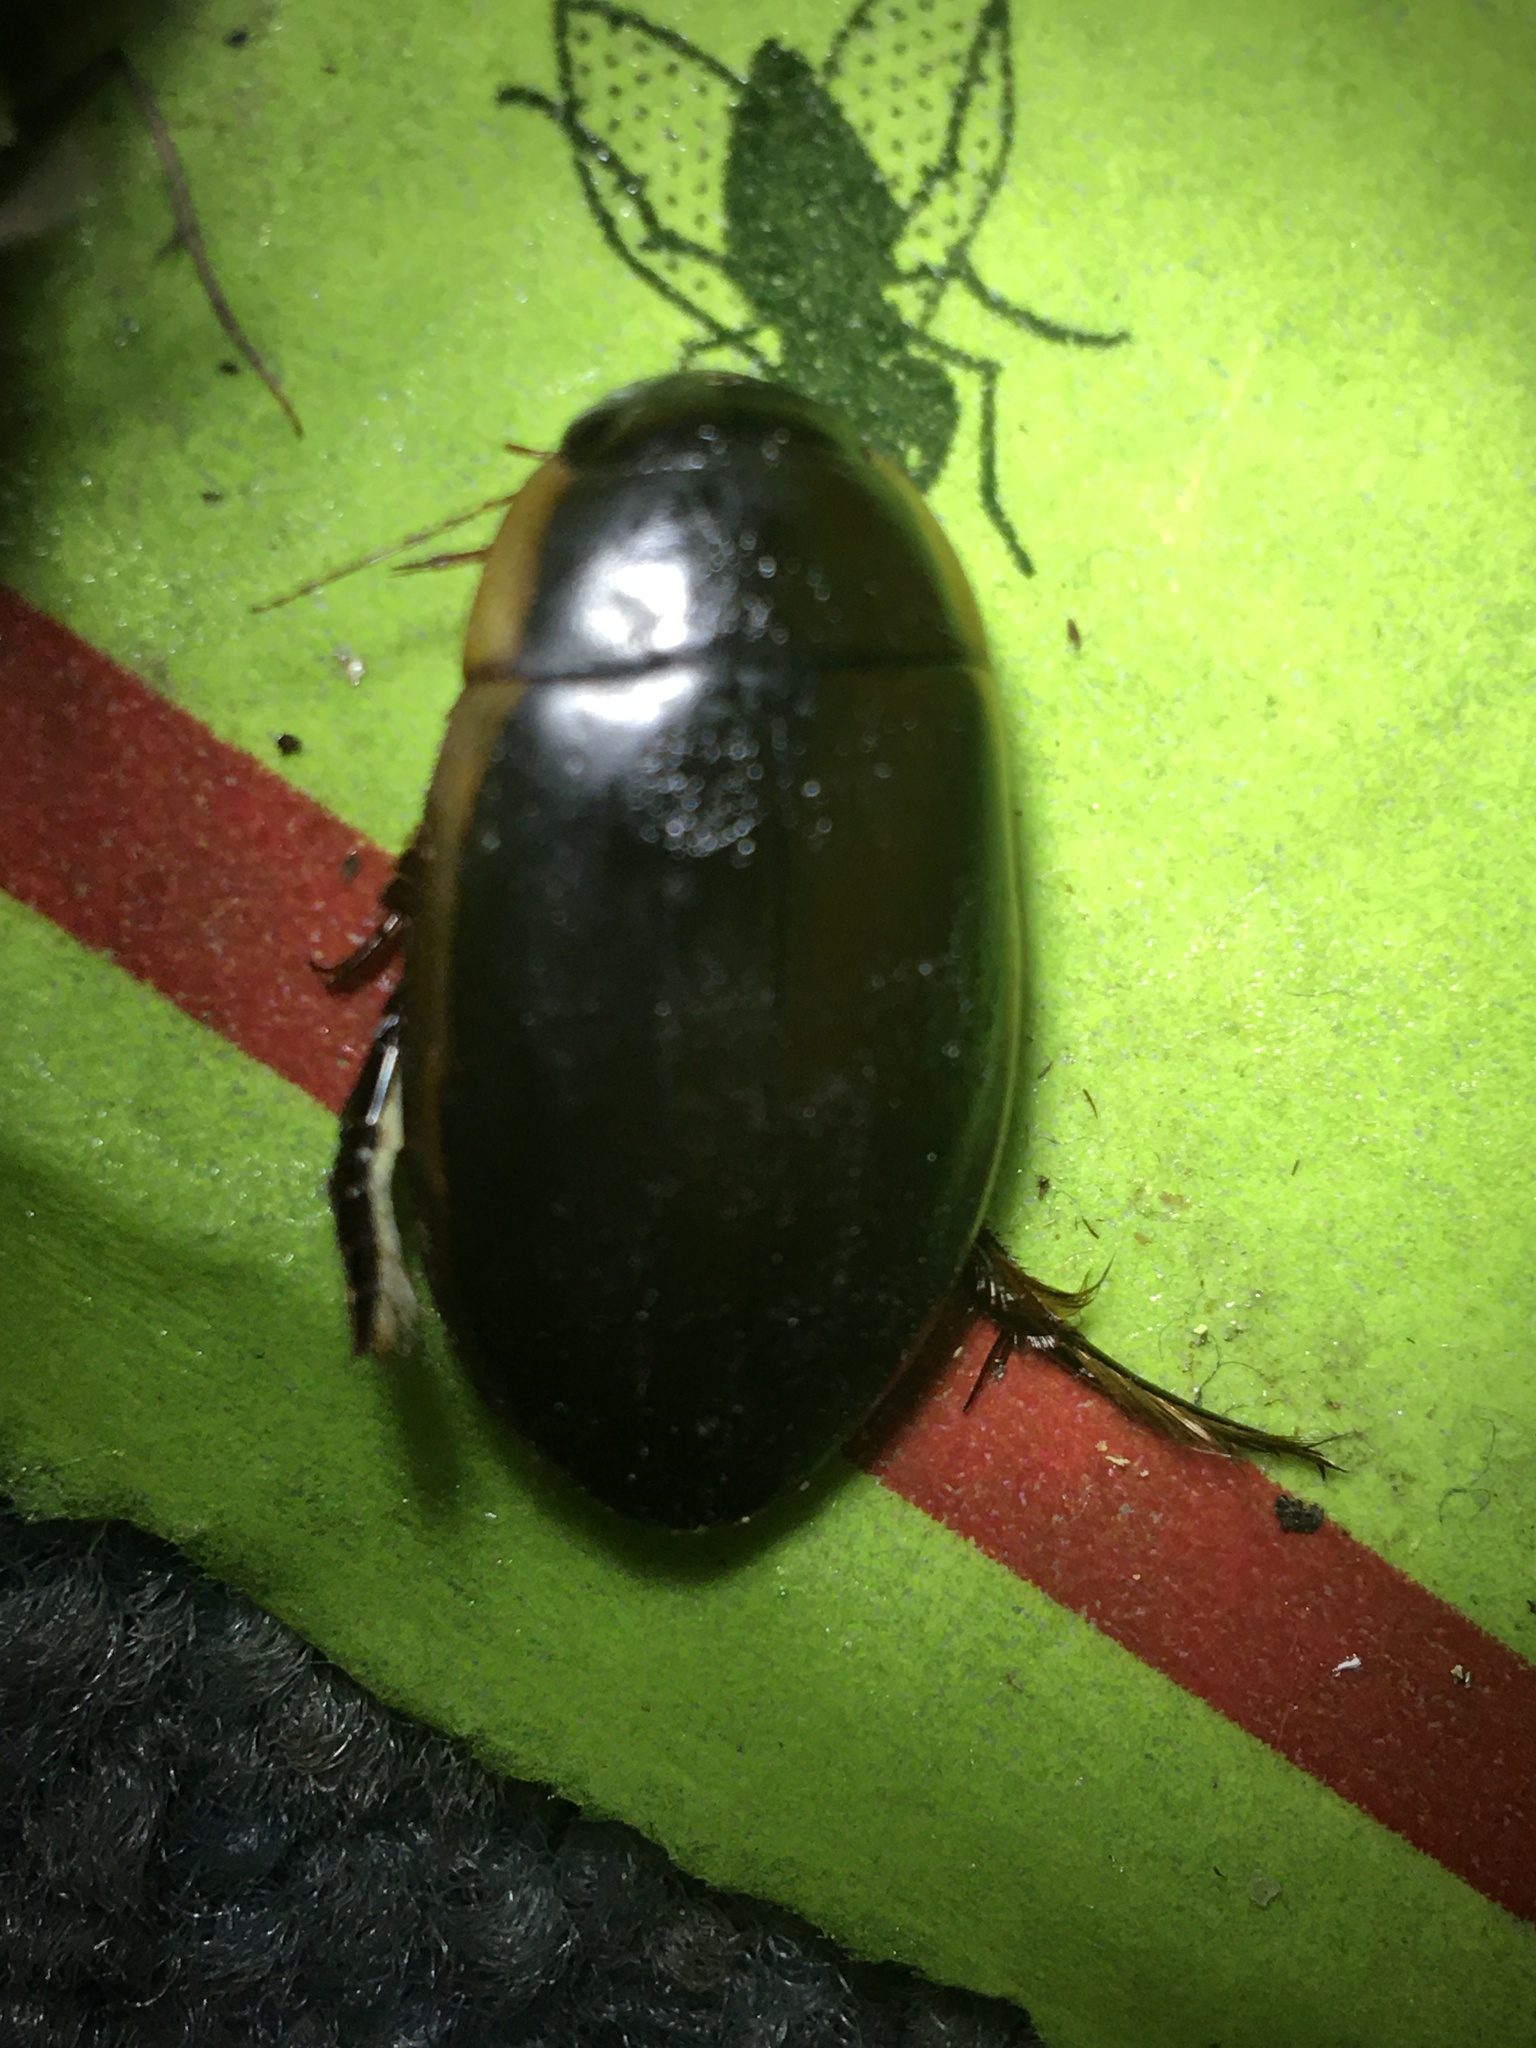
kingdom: Animalia
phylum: Arthropoda
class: Insecta
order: Coleoptera
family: Dytiscidae
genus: Dytiscus
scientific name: Dytiscus carolinus
